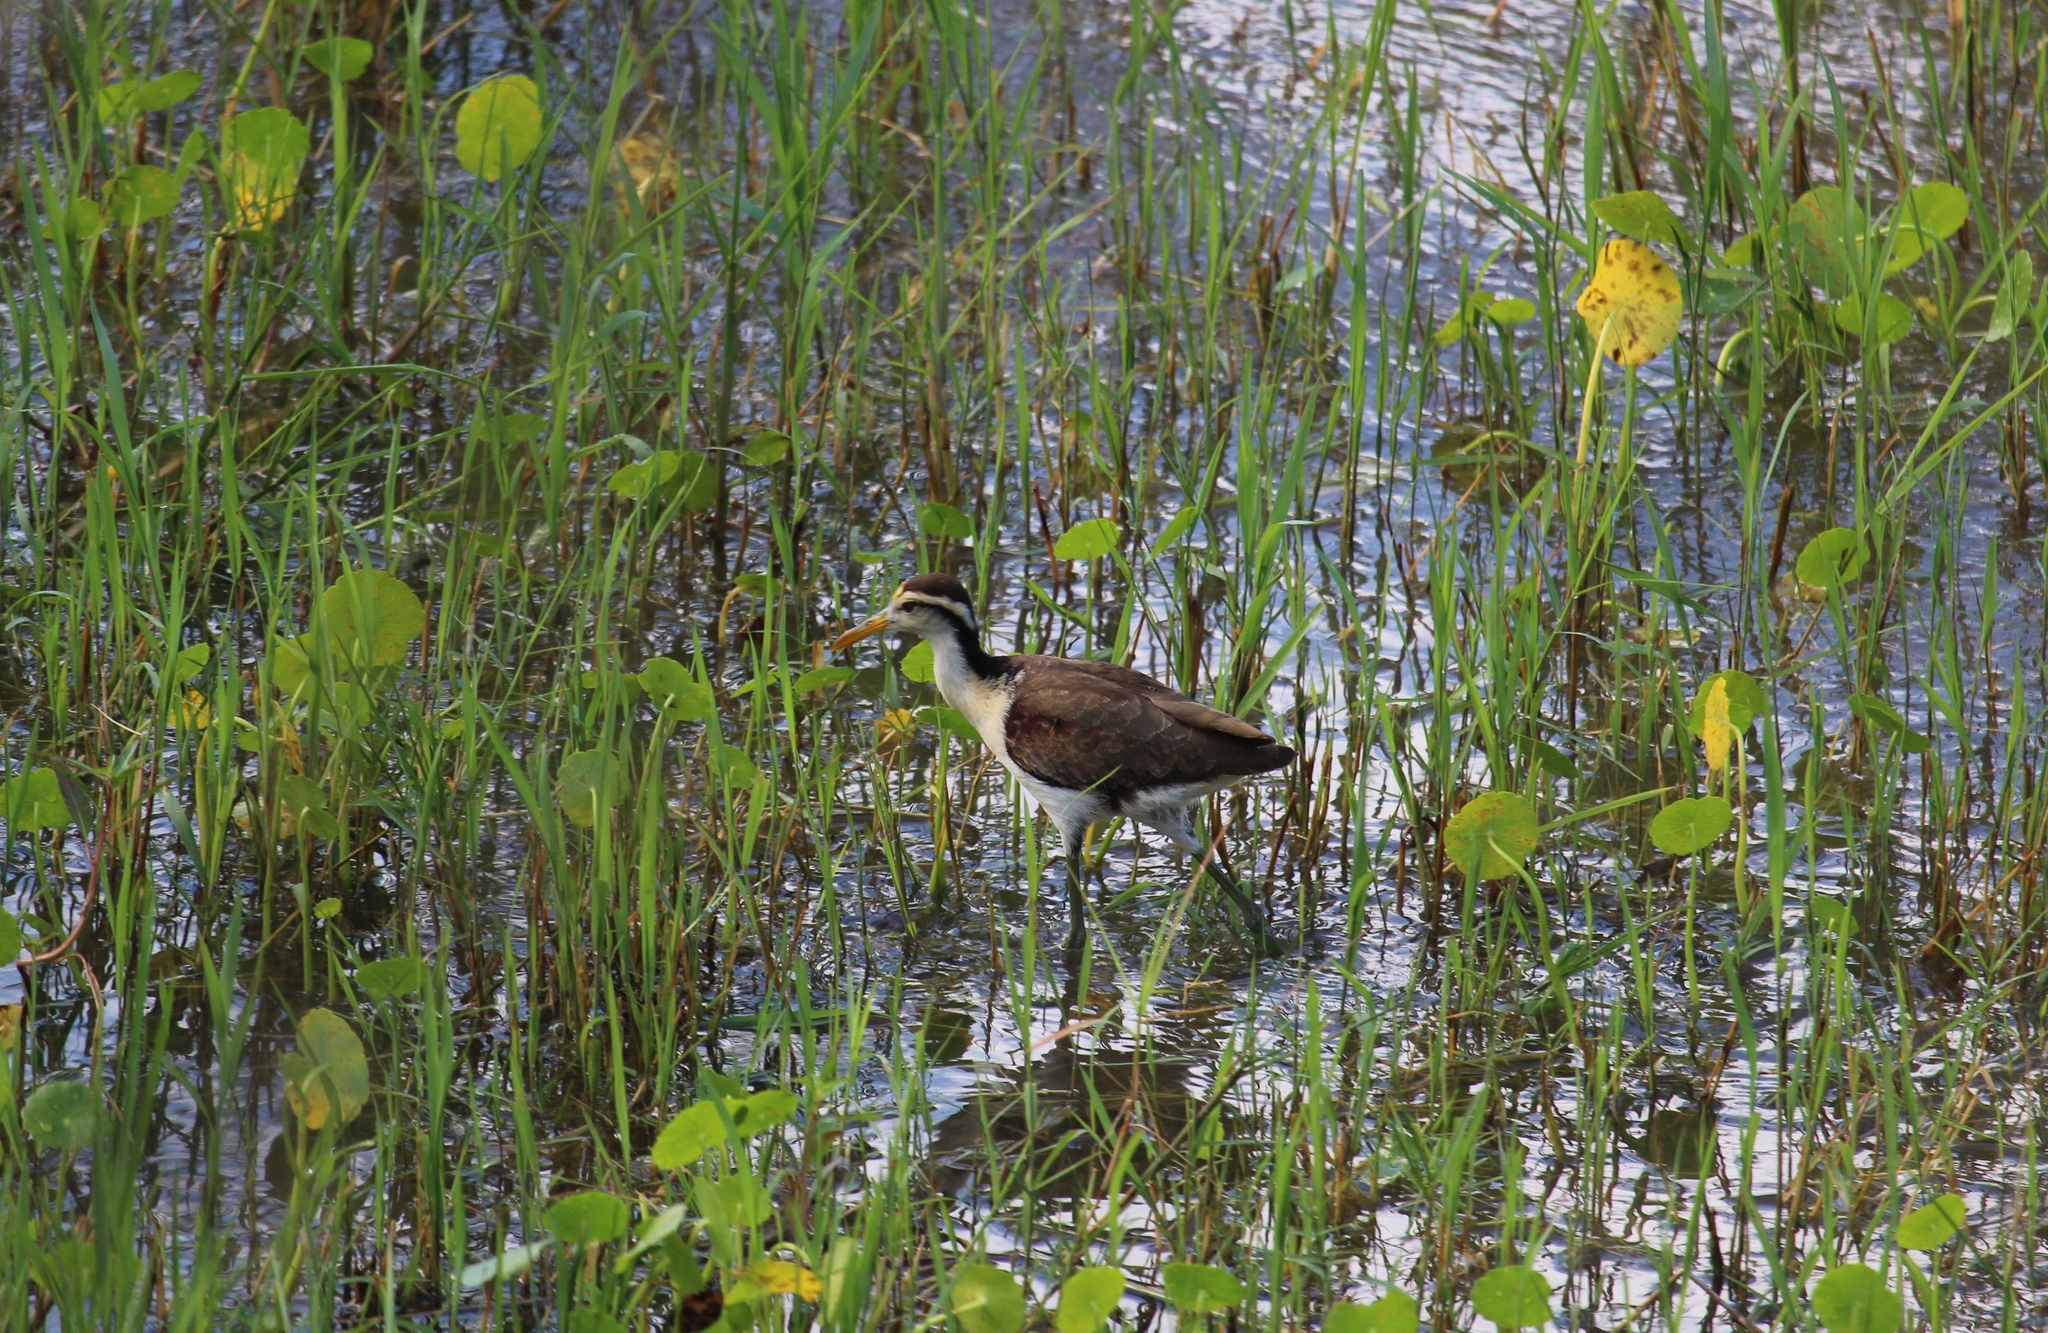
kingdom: Animalia
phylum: Chordata
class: Aves
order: Charadriiformes
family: Jacanidae
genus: Jacana
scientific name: Jacana spinosa
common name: Northern jacana
